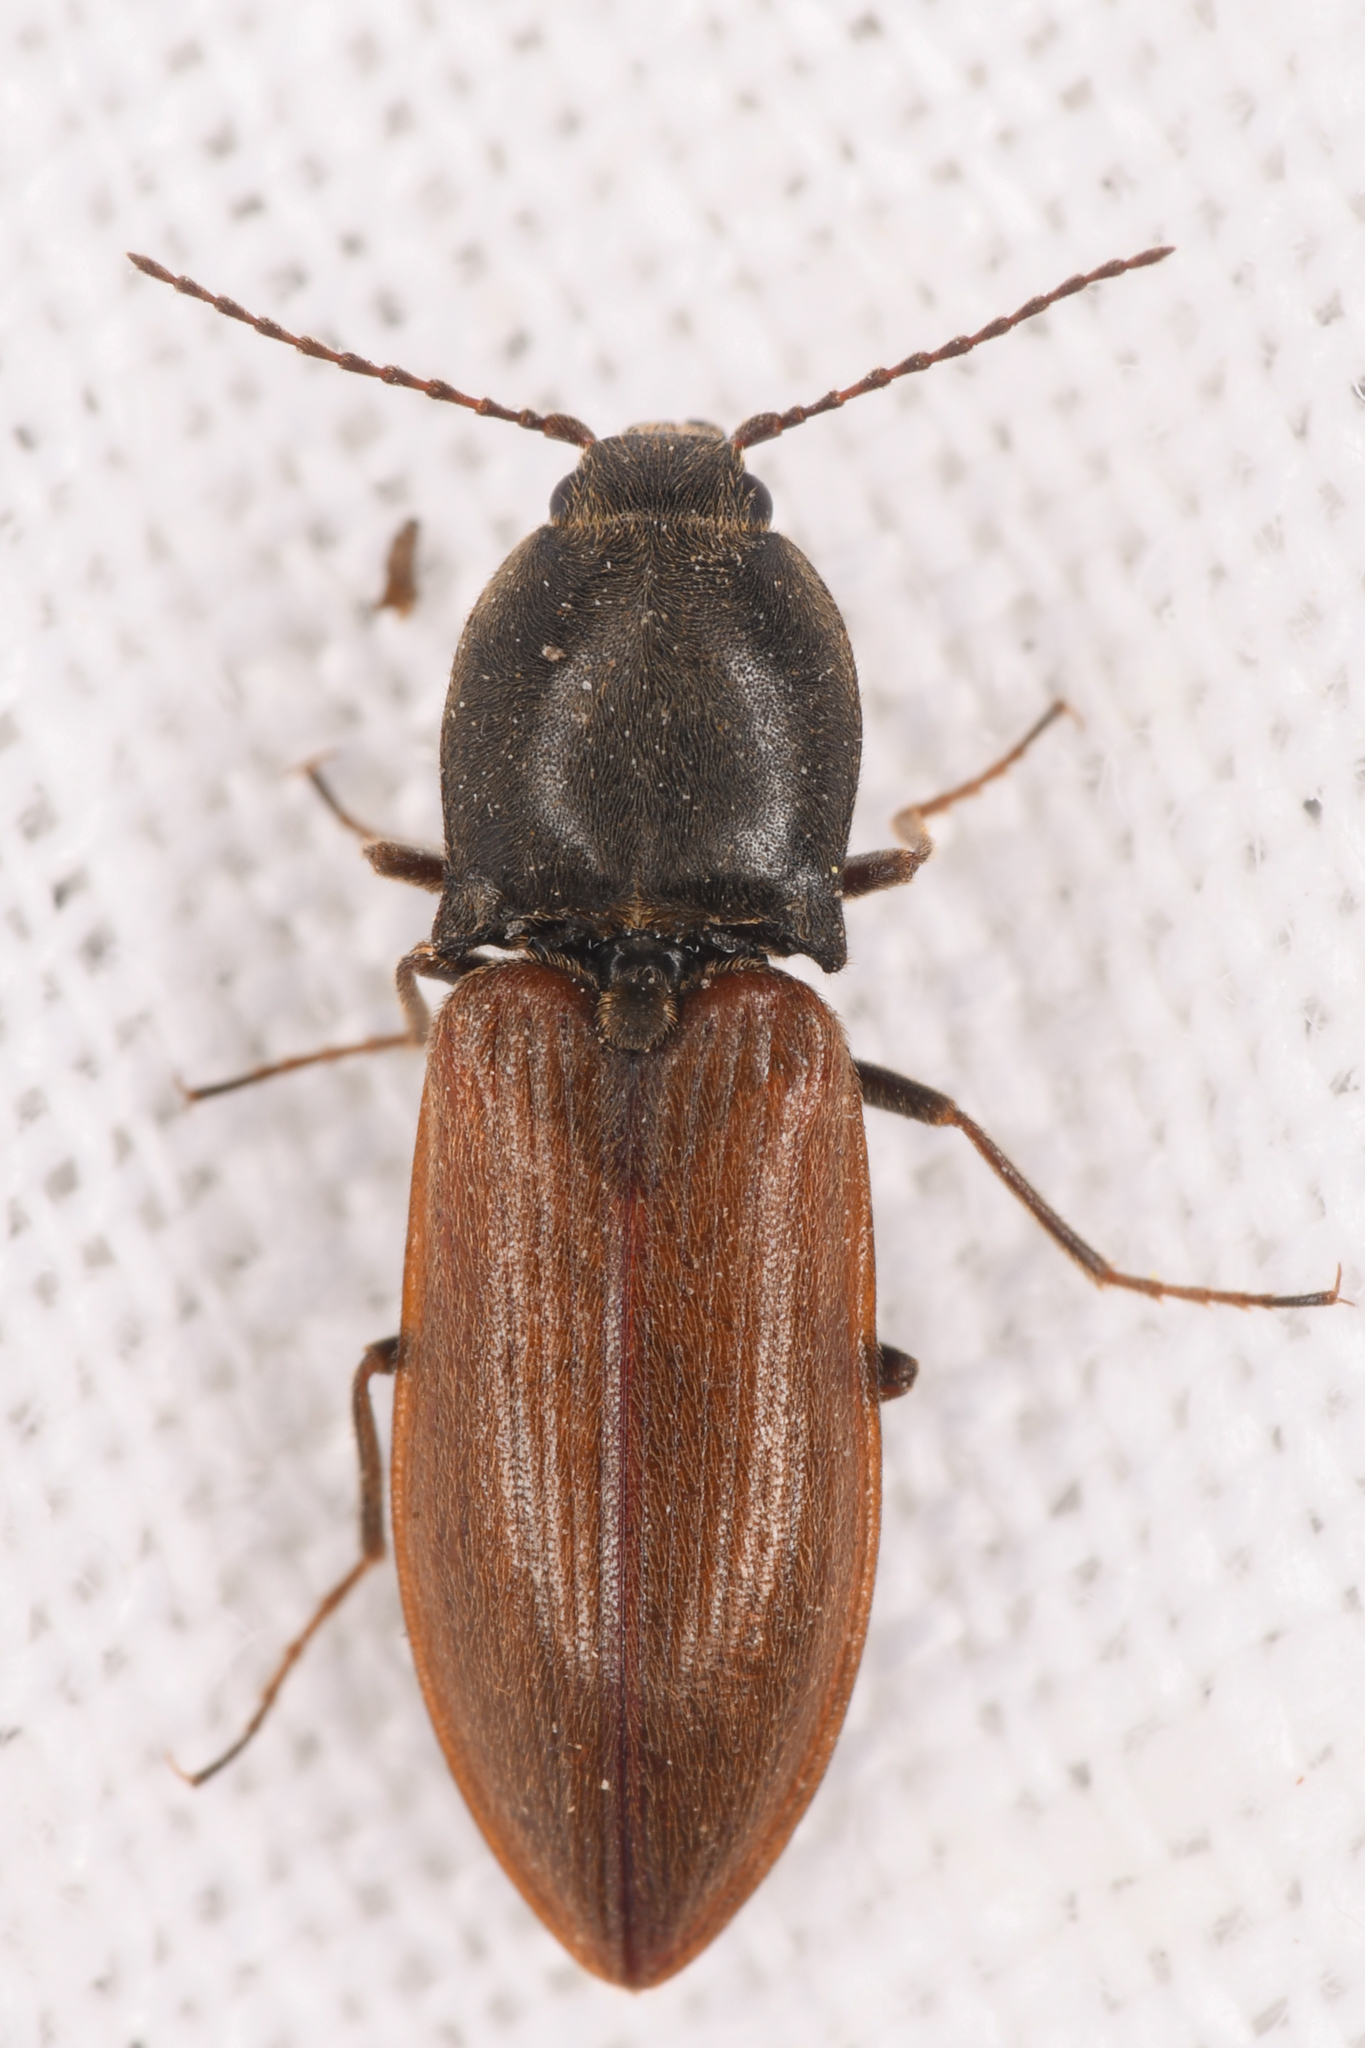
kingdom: Animalia
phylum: Arthropoda
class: Insecta
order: Coleoptera
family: Elateridae
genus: Pseudanostirus
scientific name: Pseudanostirus hoppingi
